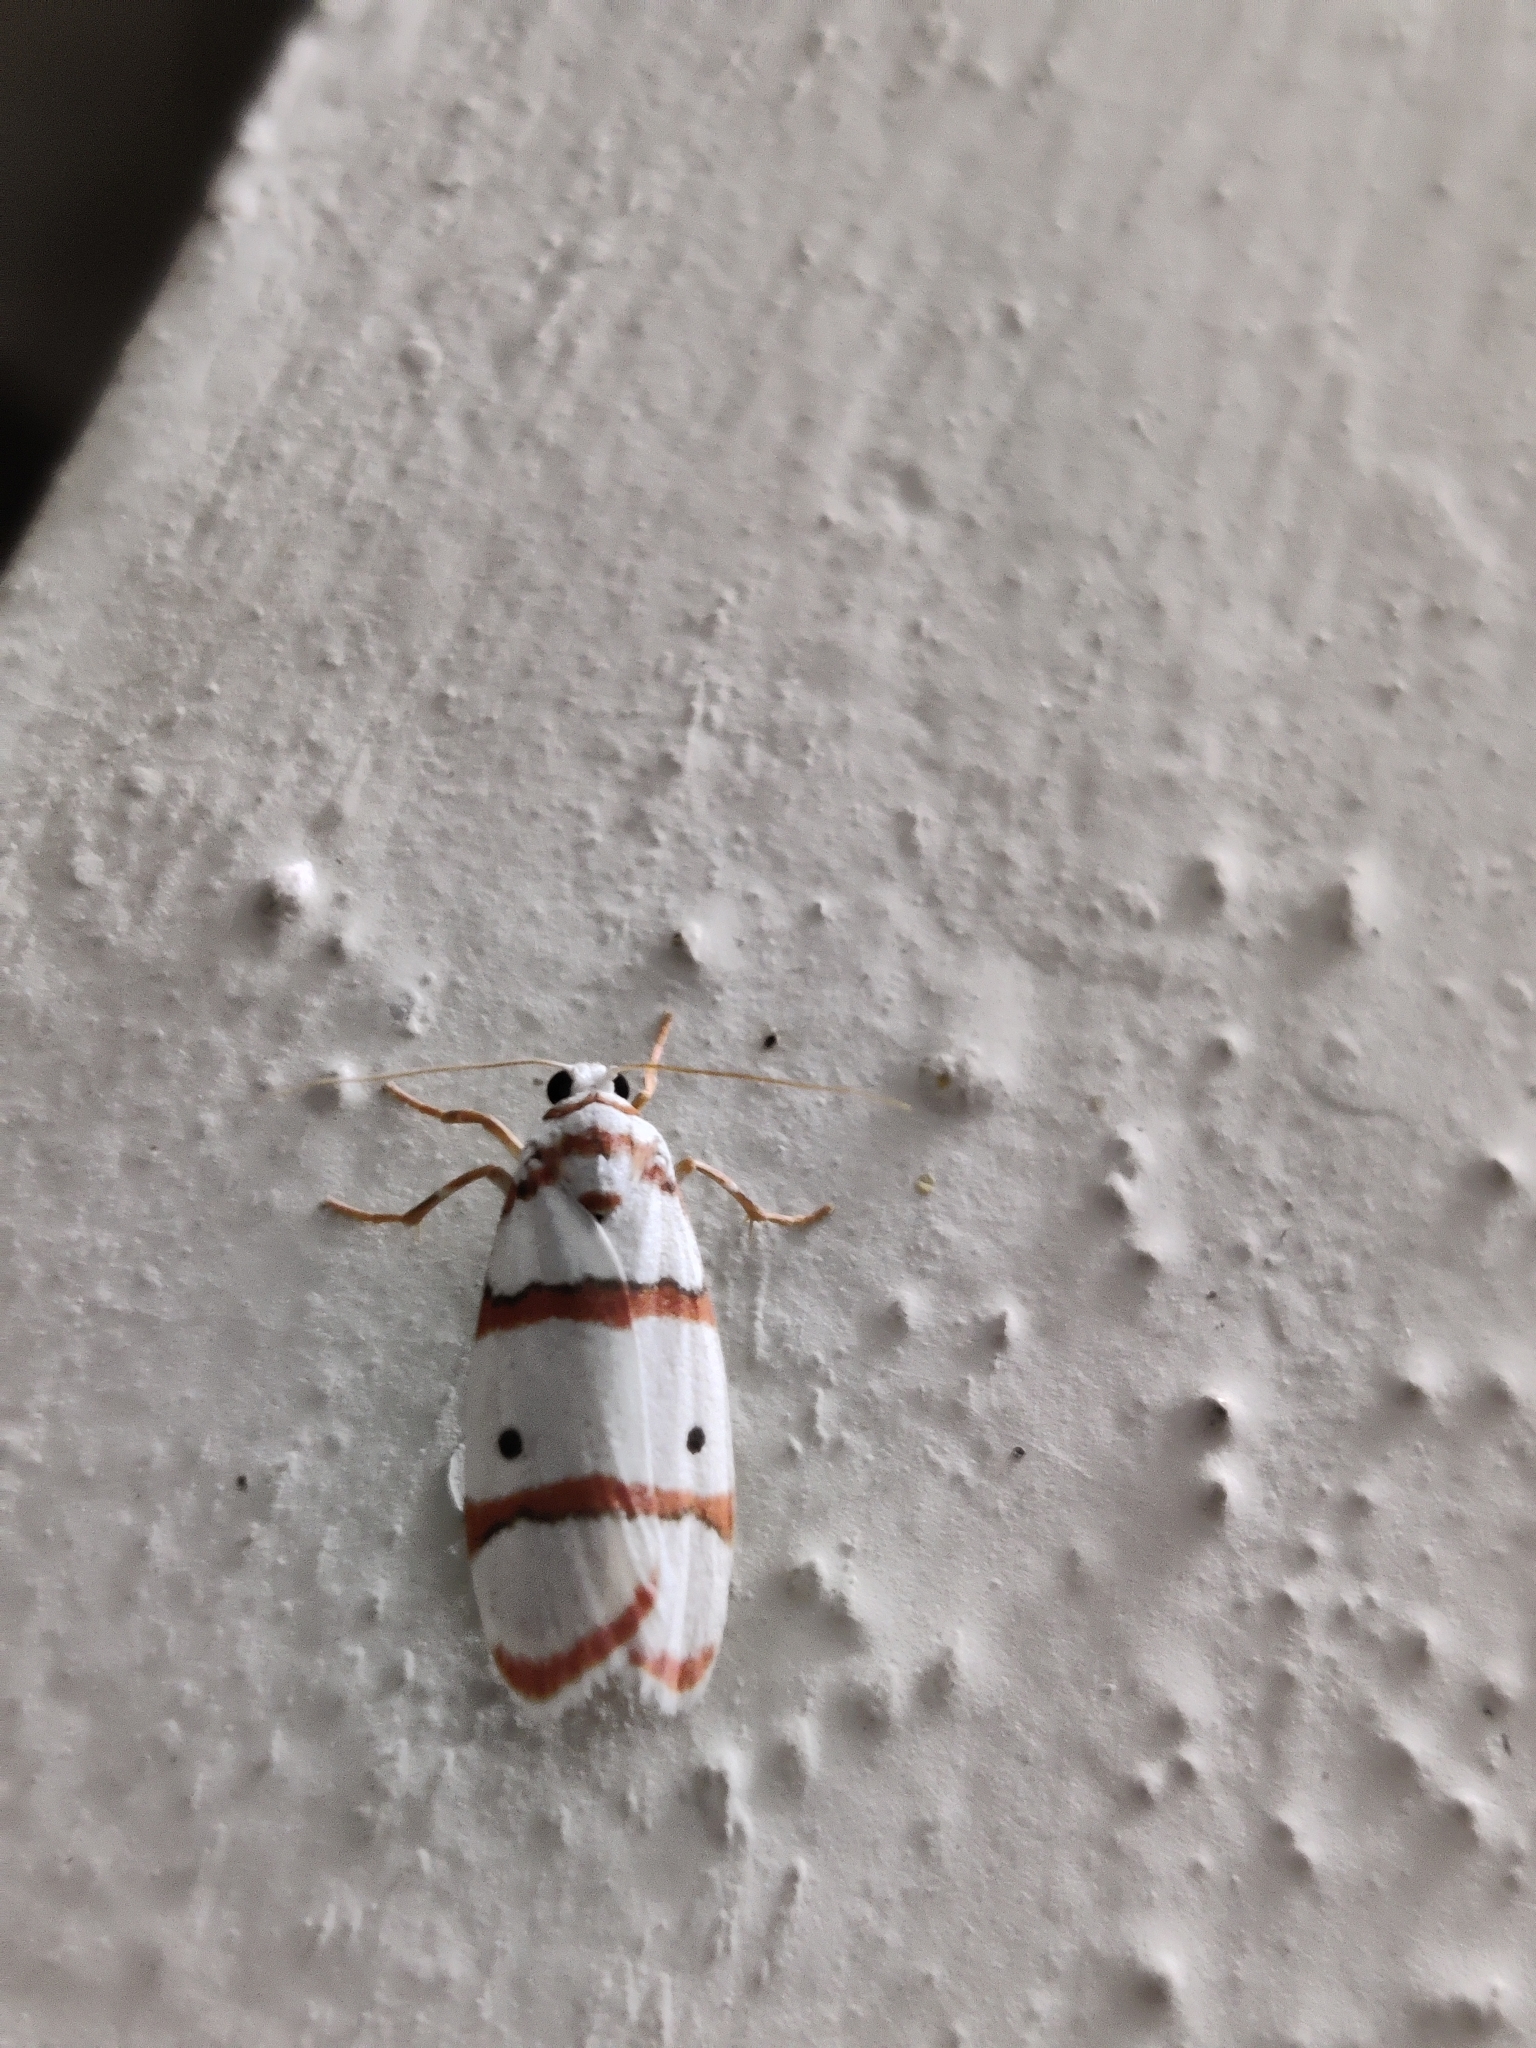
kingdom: Animalia
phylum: Arthropoda
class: Insecta
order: Lepidoptera
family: Erebidae
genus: Cyana
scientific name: Cyana peregrina
